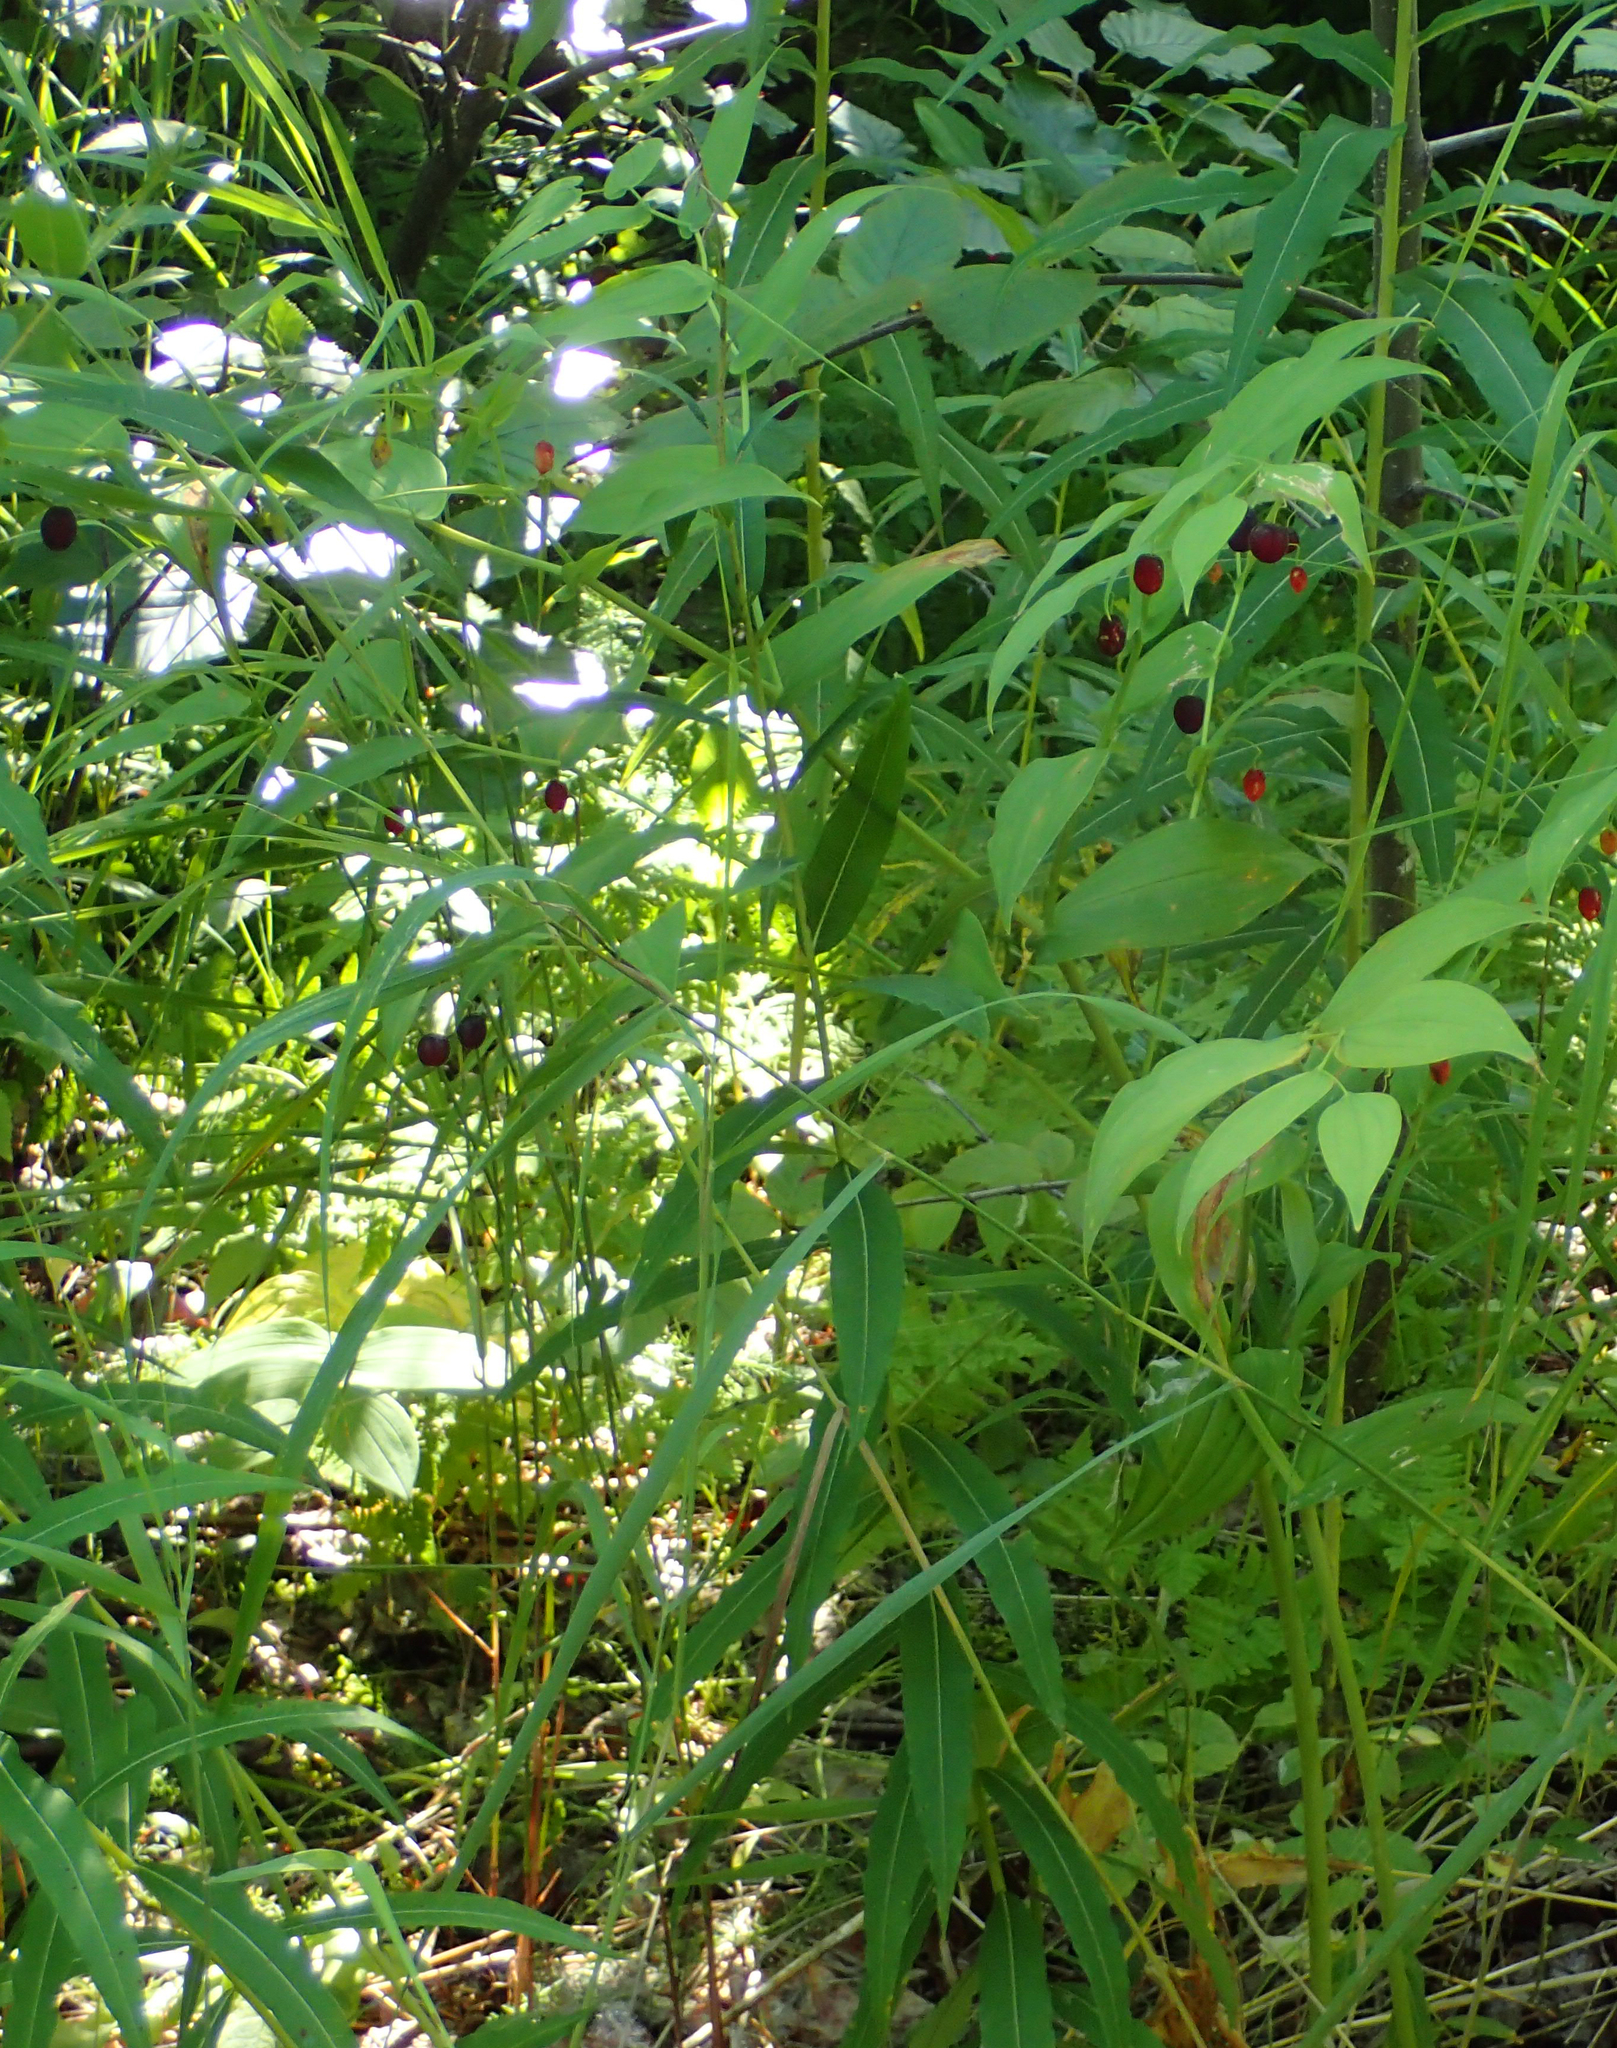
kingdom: Plantae
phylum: Tracheophyta
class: Liliopsida
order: Liliales
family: Liliaceae
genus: Streptopus
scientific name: Streptopus amplexifolius
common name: Clasp twisted stalk
